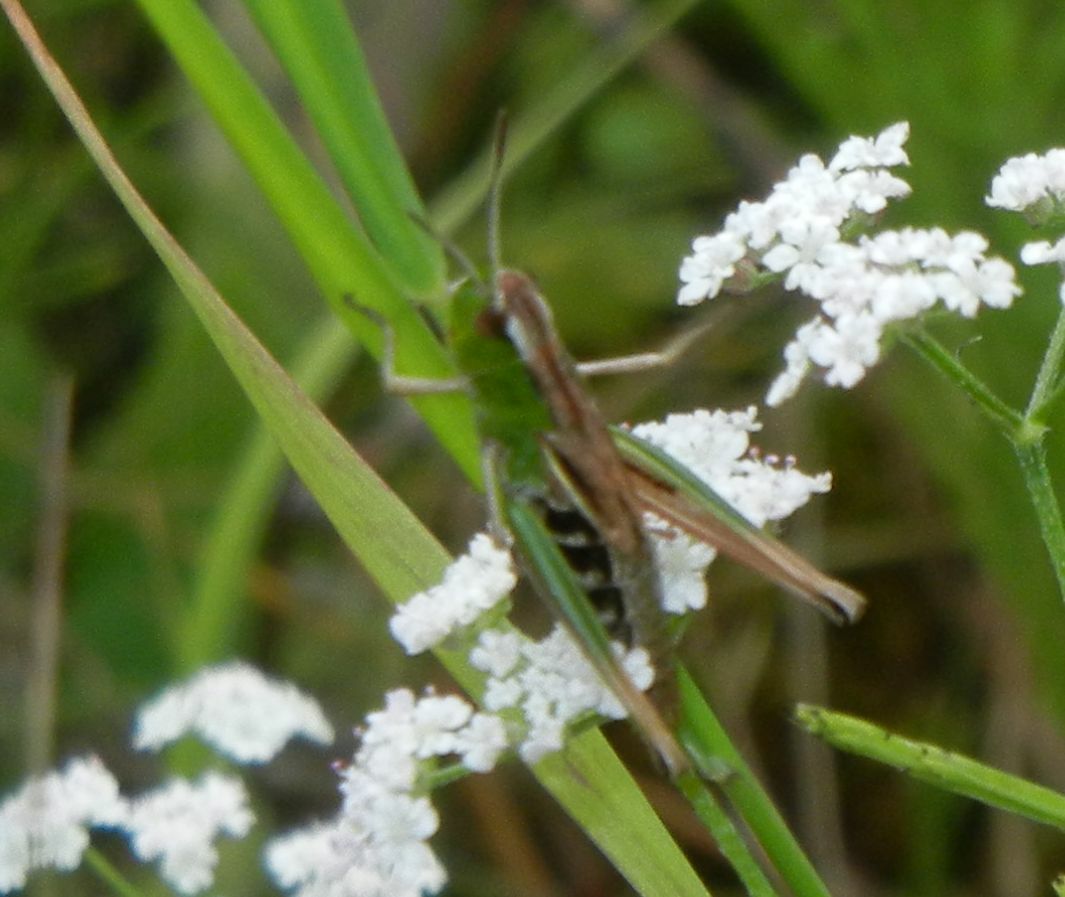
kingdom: Animalia
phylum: Arthropoda
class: Insecta
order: Orthoptera
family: Acrididae
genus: Pseudochorthippus
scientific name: Pseudochorthippus parallelus
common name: Meadow grasshopper
